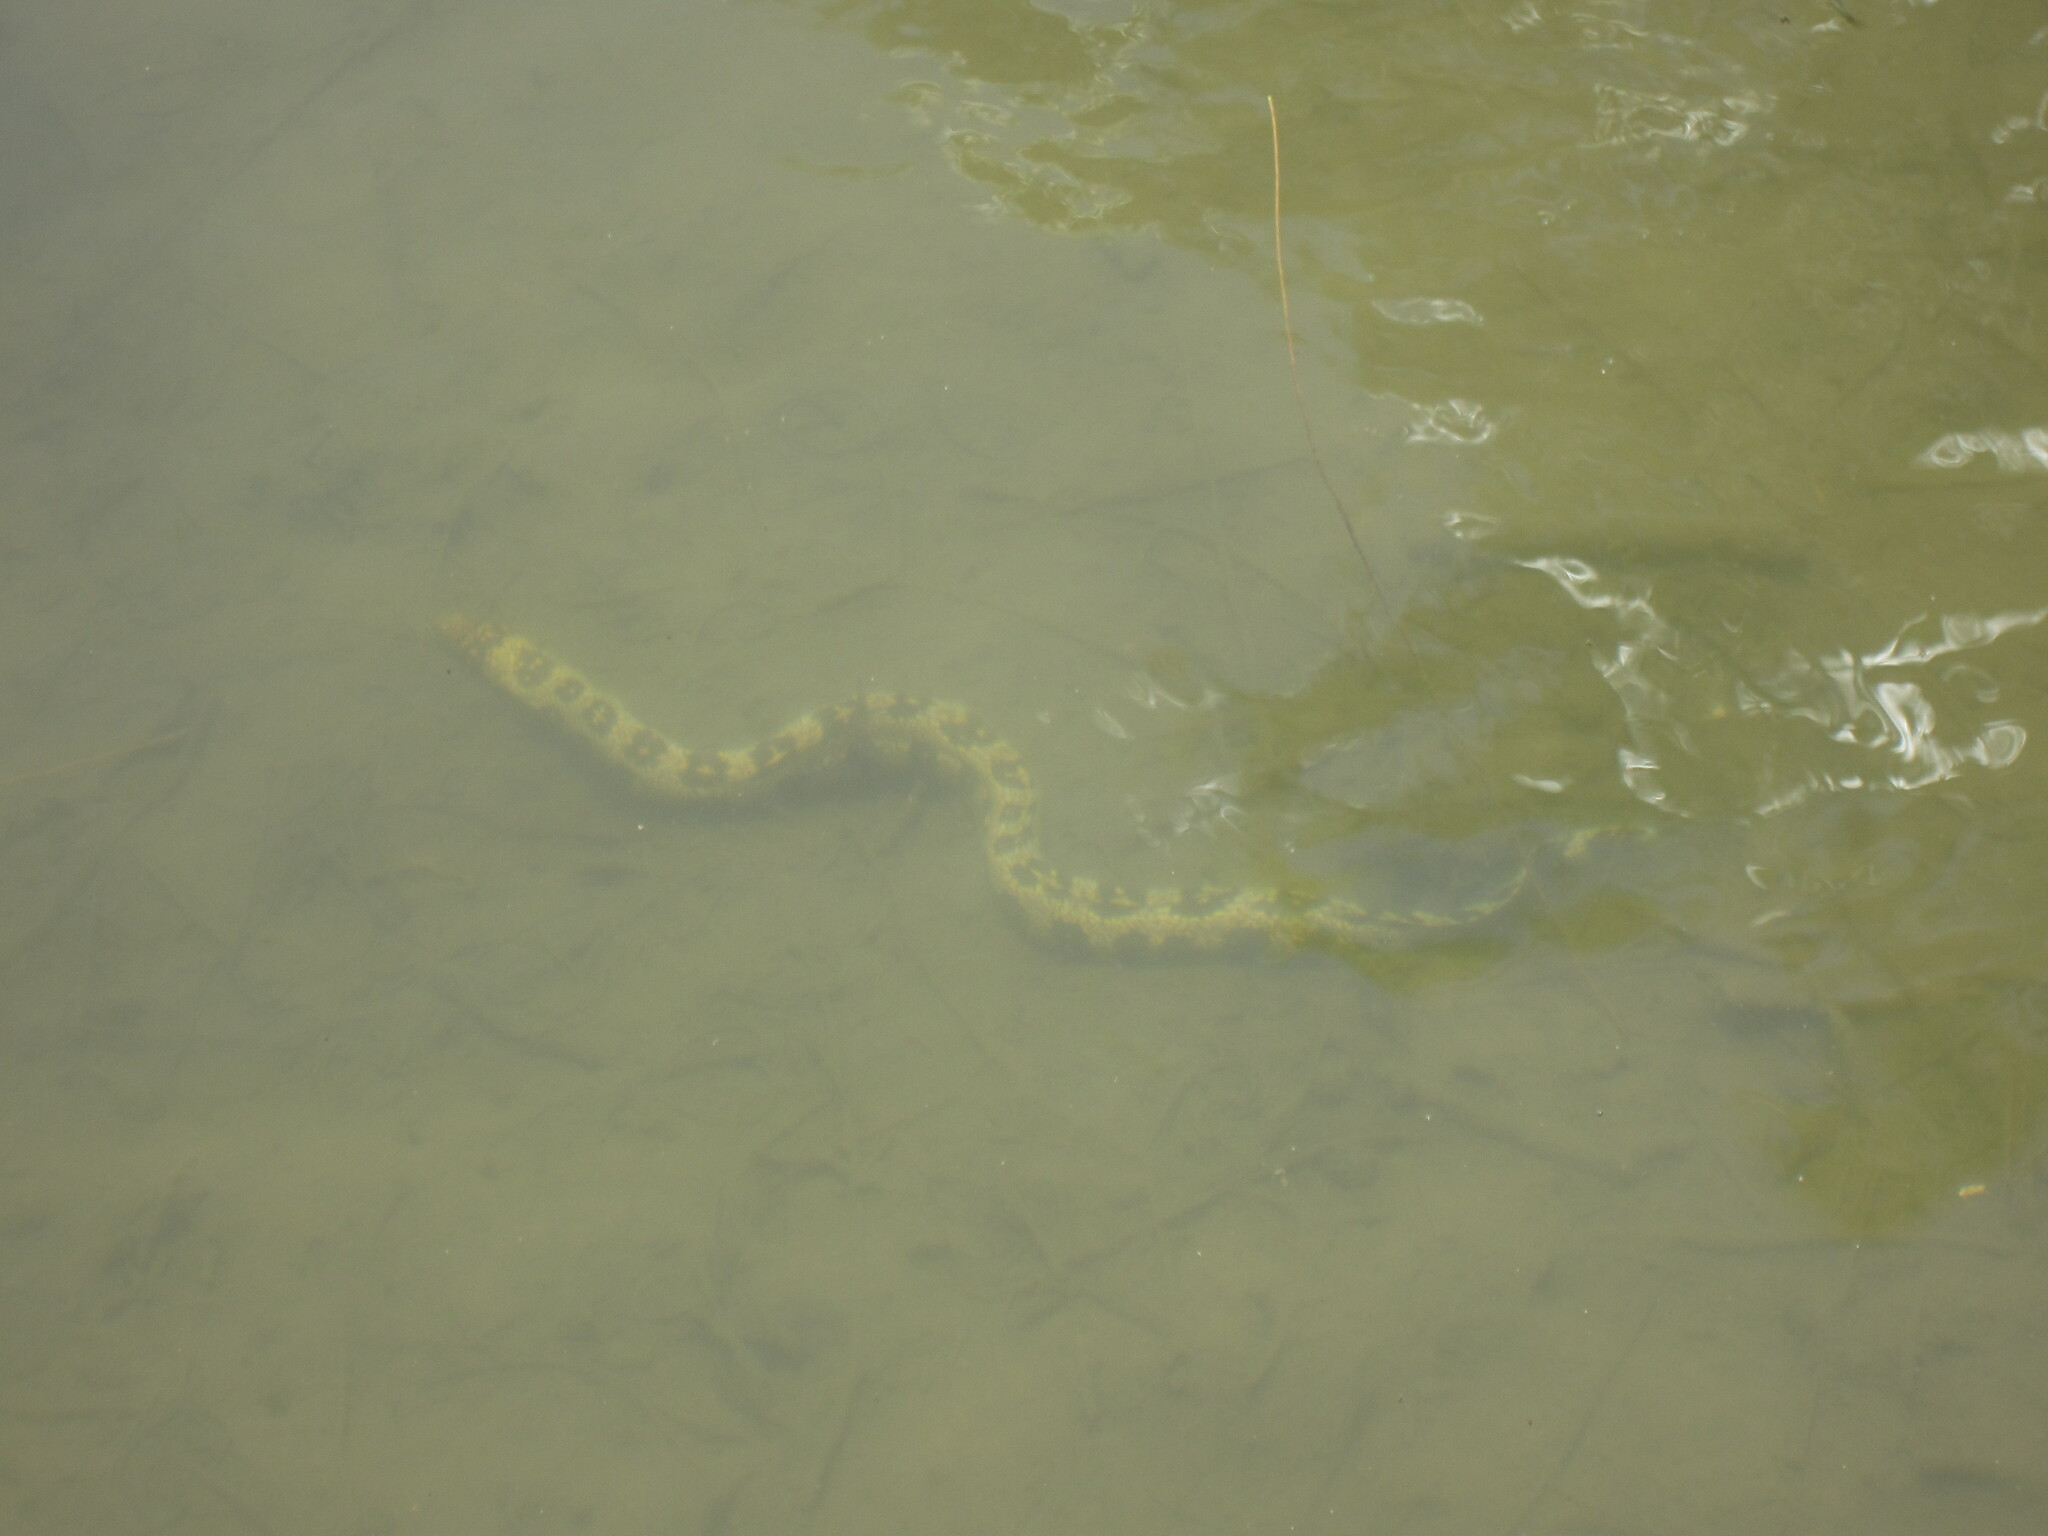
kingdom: Animalia
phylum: Chordata
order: Anguilliformes
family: Muraenidae
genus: Echidna
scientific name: Echidna nebulosa
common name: Snowflake moray
